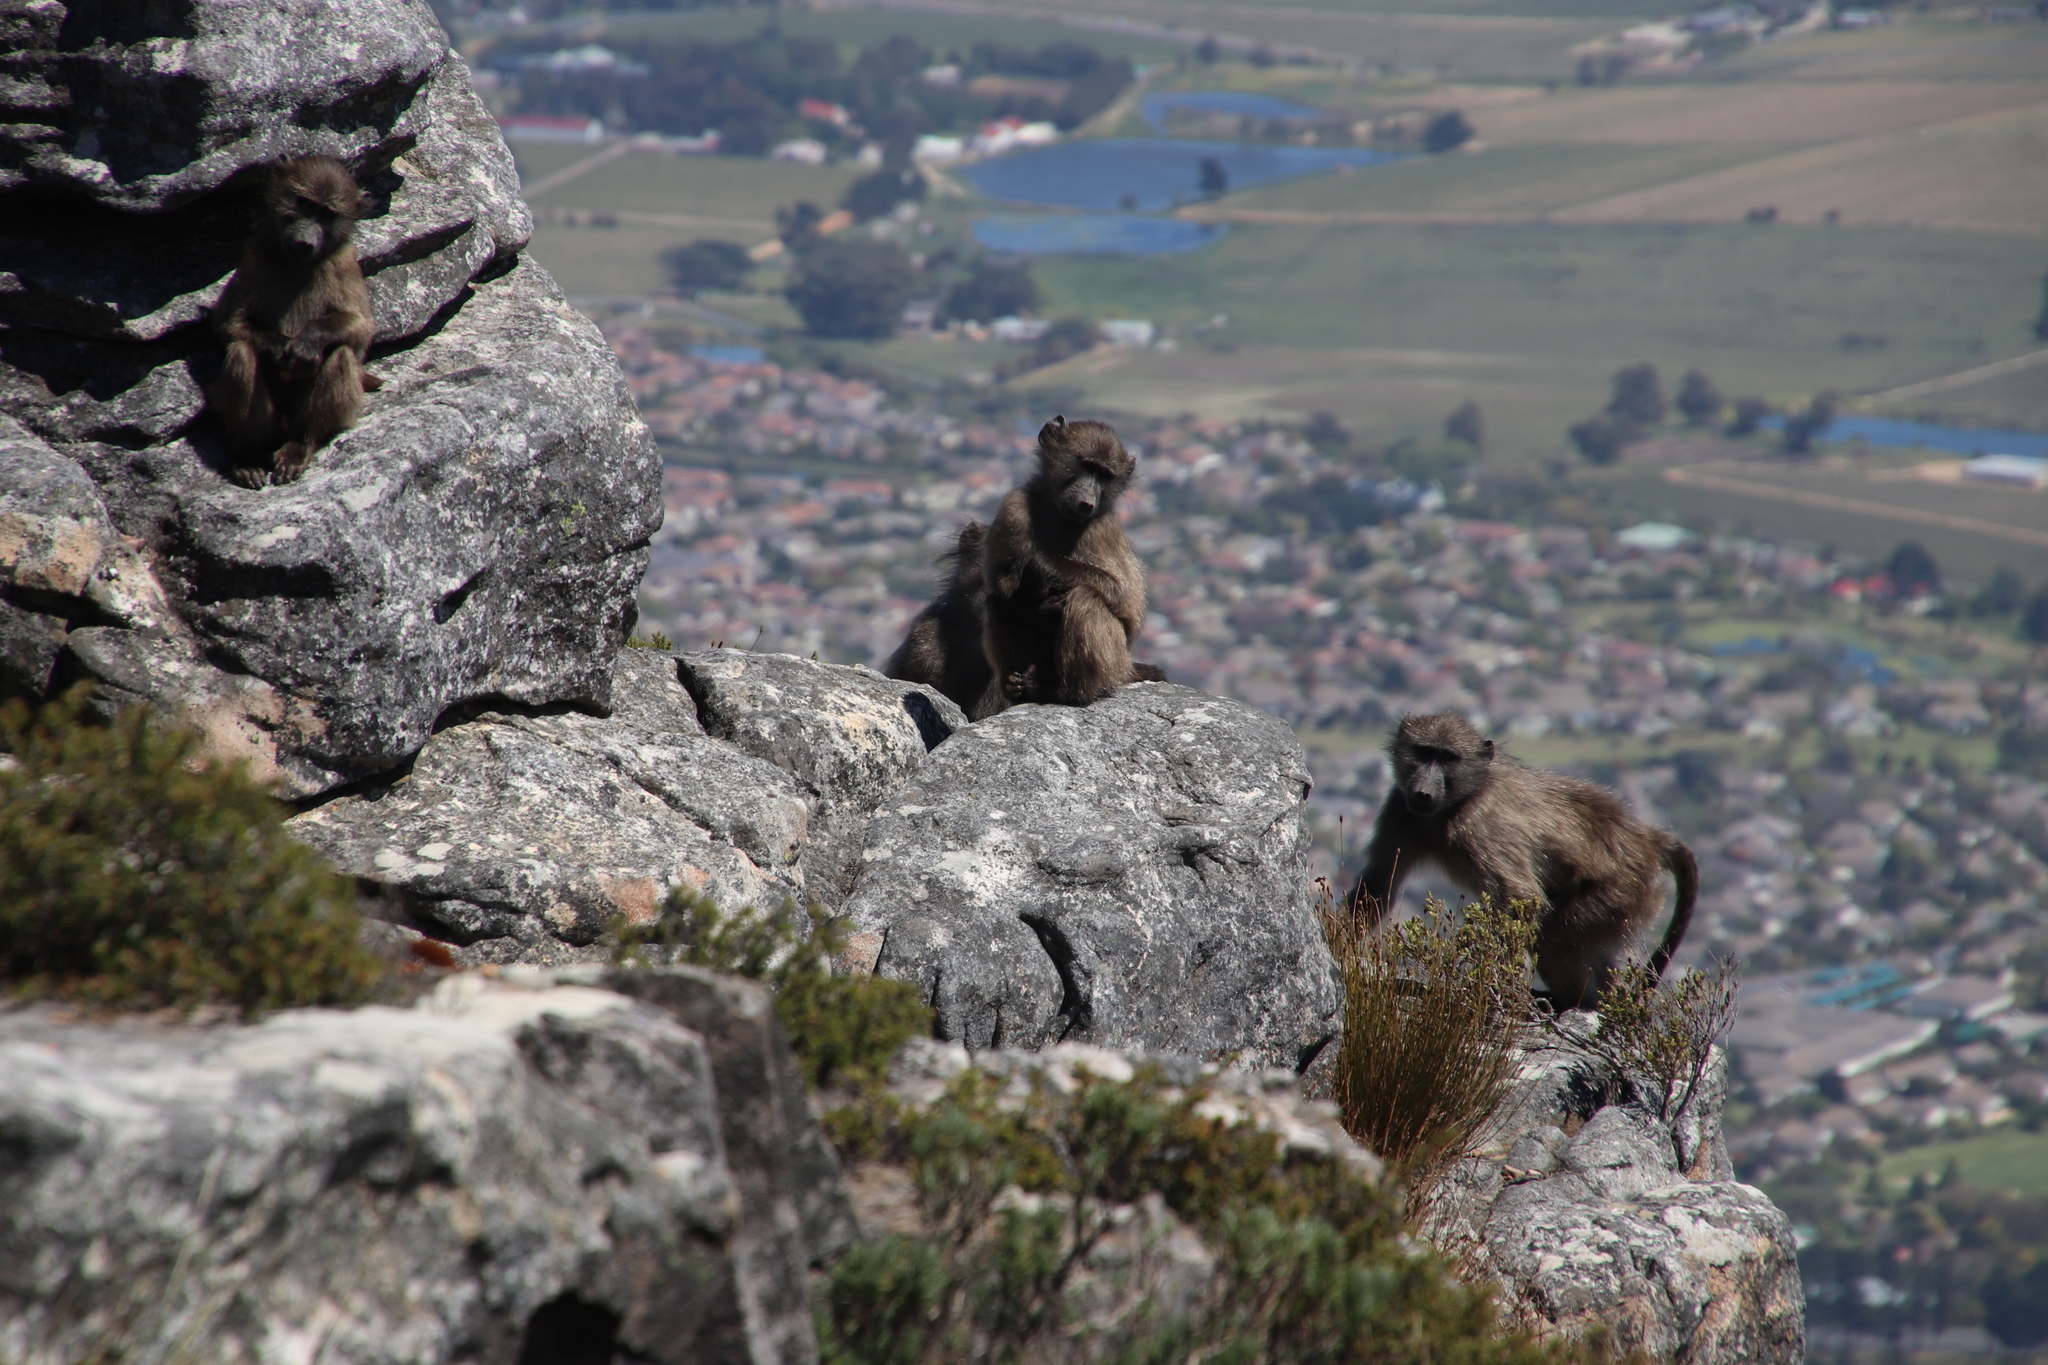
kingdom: Animalia
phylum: Chordata
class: Mammalia
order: Primates
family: Cercopithecidae
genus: Papio
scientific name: Papio ursinus
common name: Chacma baboon
